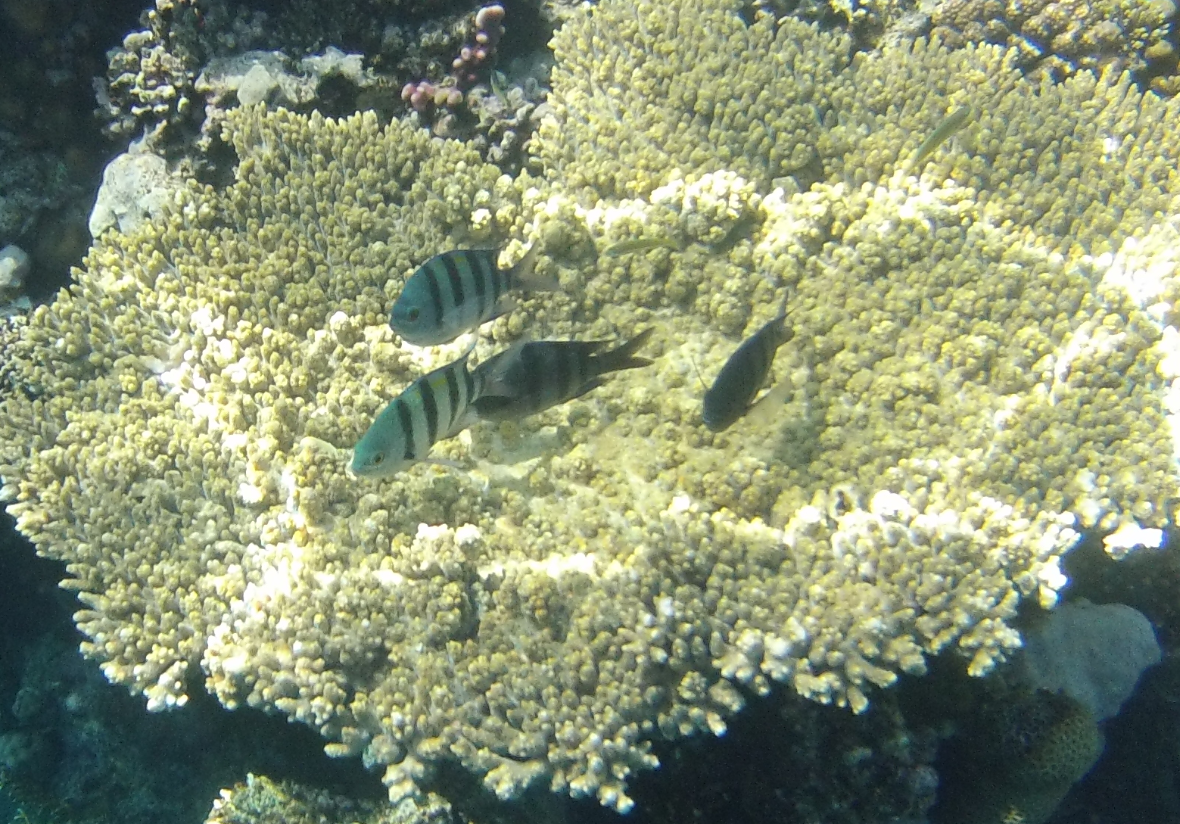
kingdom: Animalia
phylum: Chordata
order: Perciformes
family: Pomacentridae
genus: Abudefduf
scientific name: Abudefduf vaigiensis
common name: Indo-pacific sergeant
